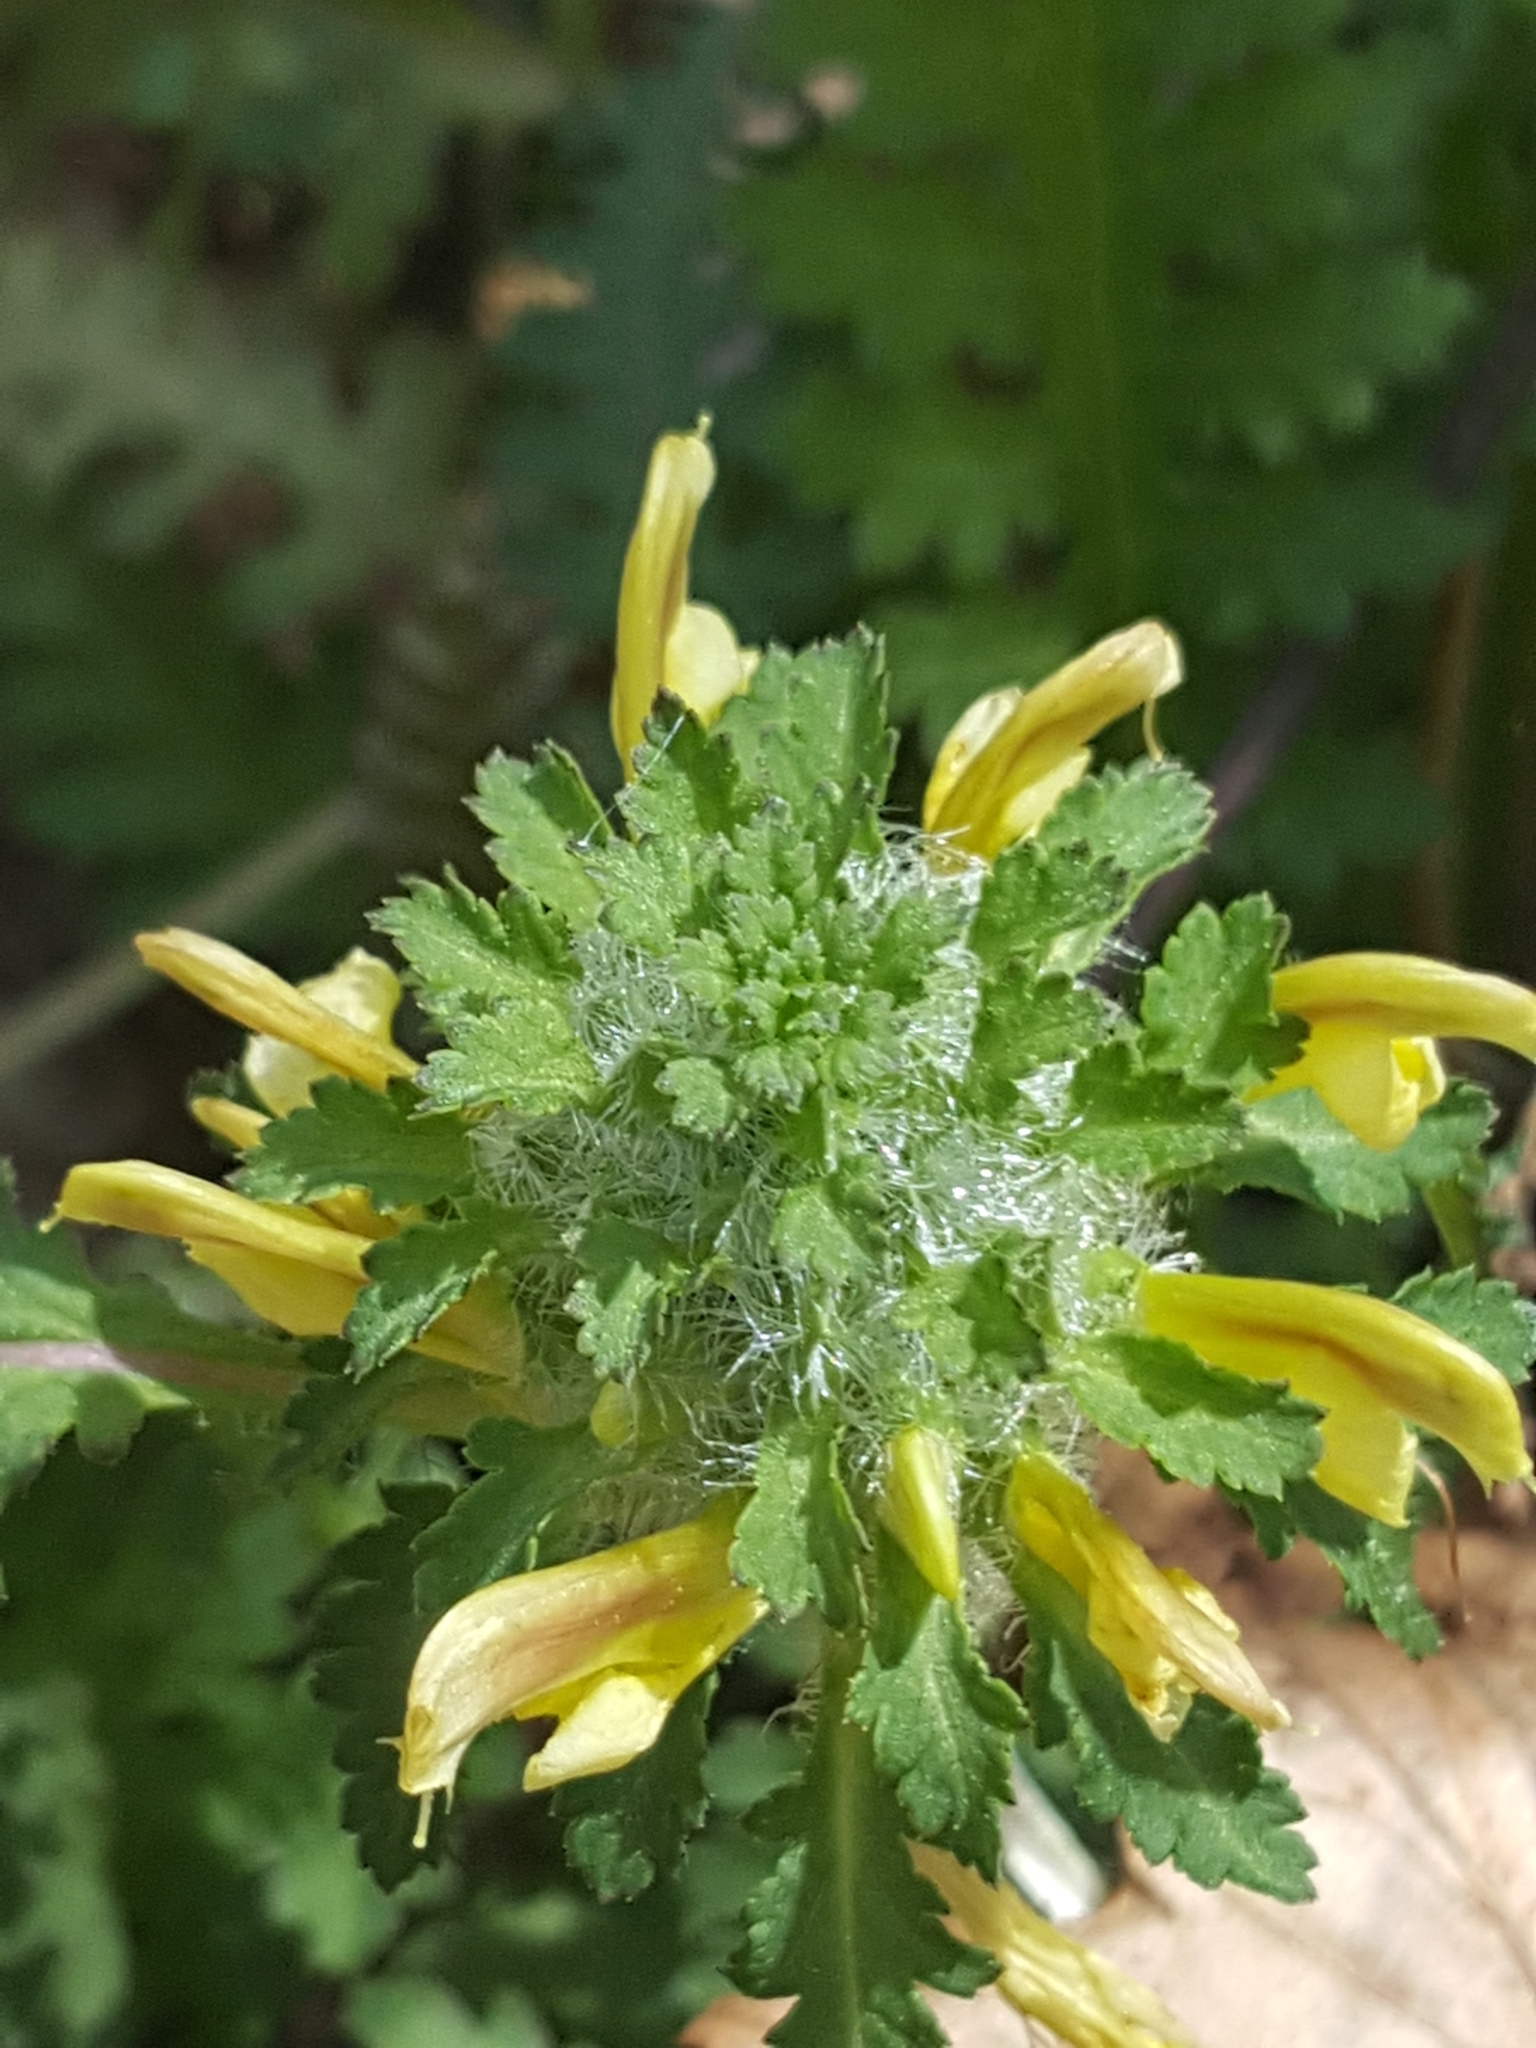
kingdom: Plantae
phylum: Tracheophyta
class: Magnoliopsida
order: Lamiales
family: Orobanchaceae
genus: Pedicularis
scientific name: Pedicularis canadensis
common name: Early lousewort
